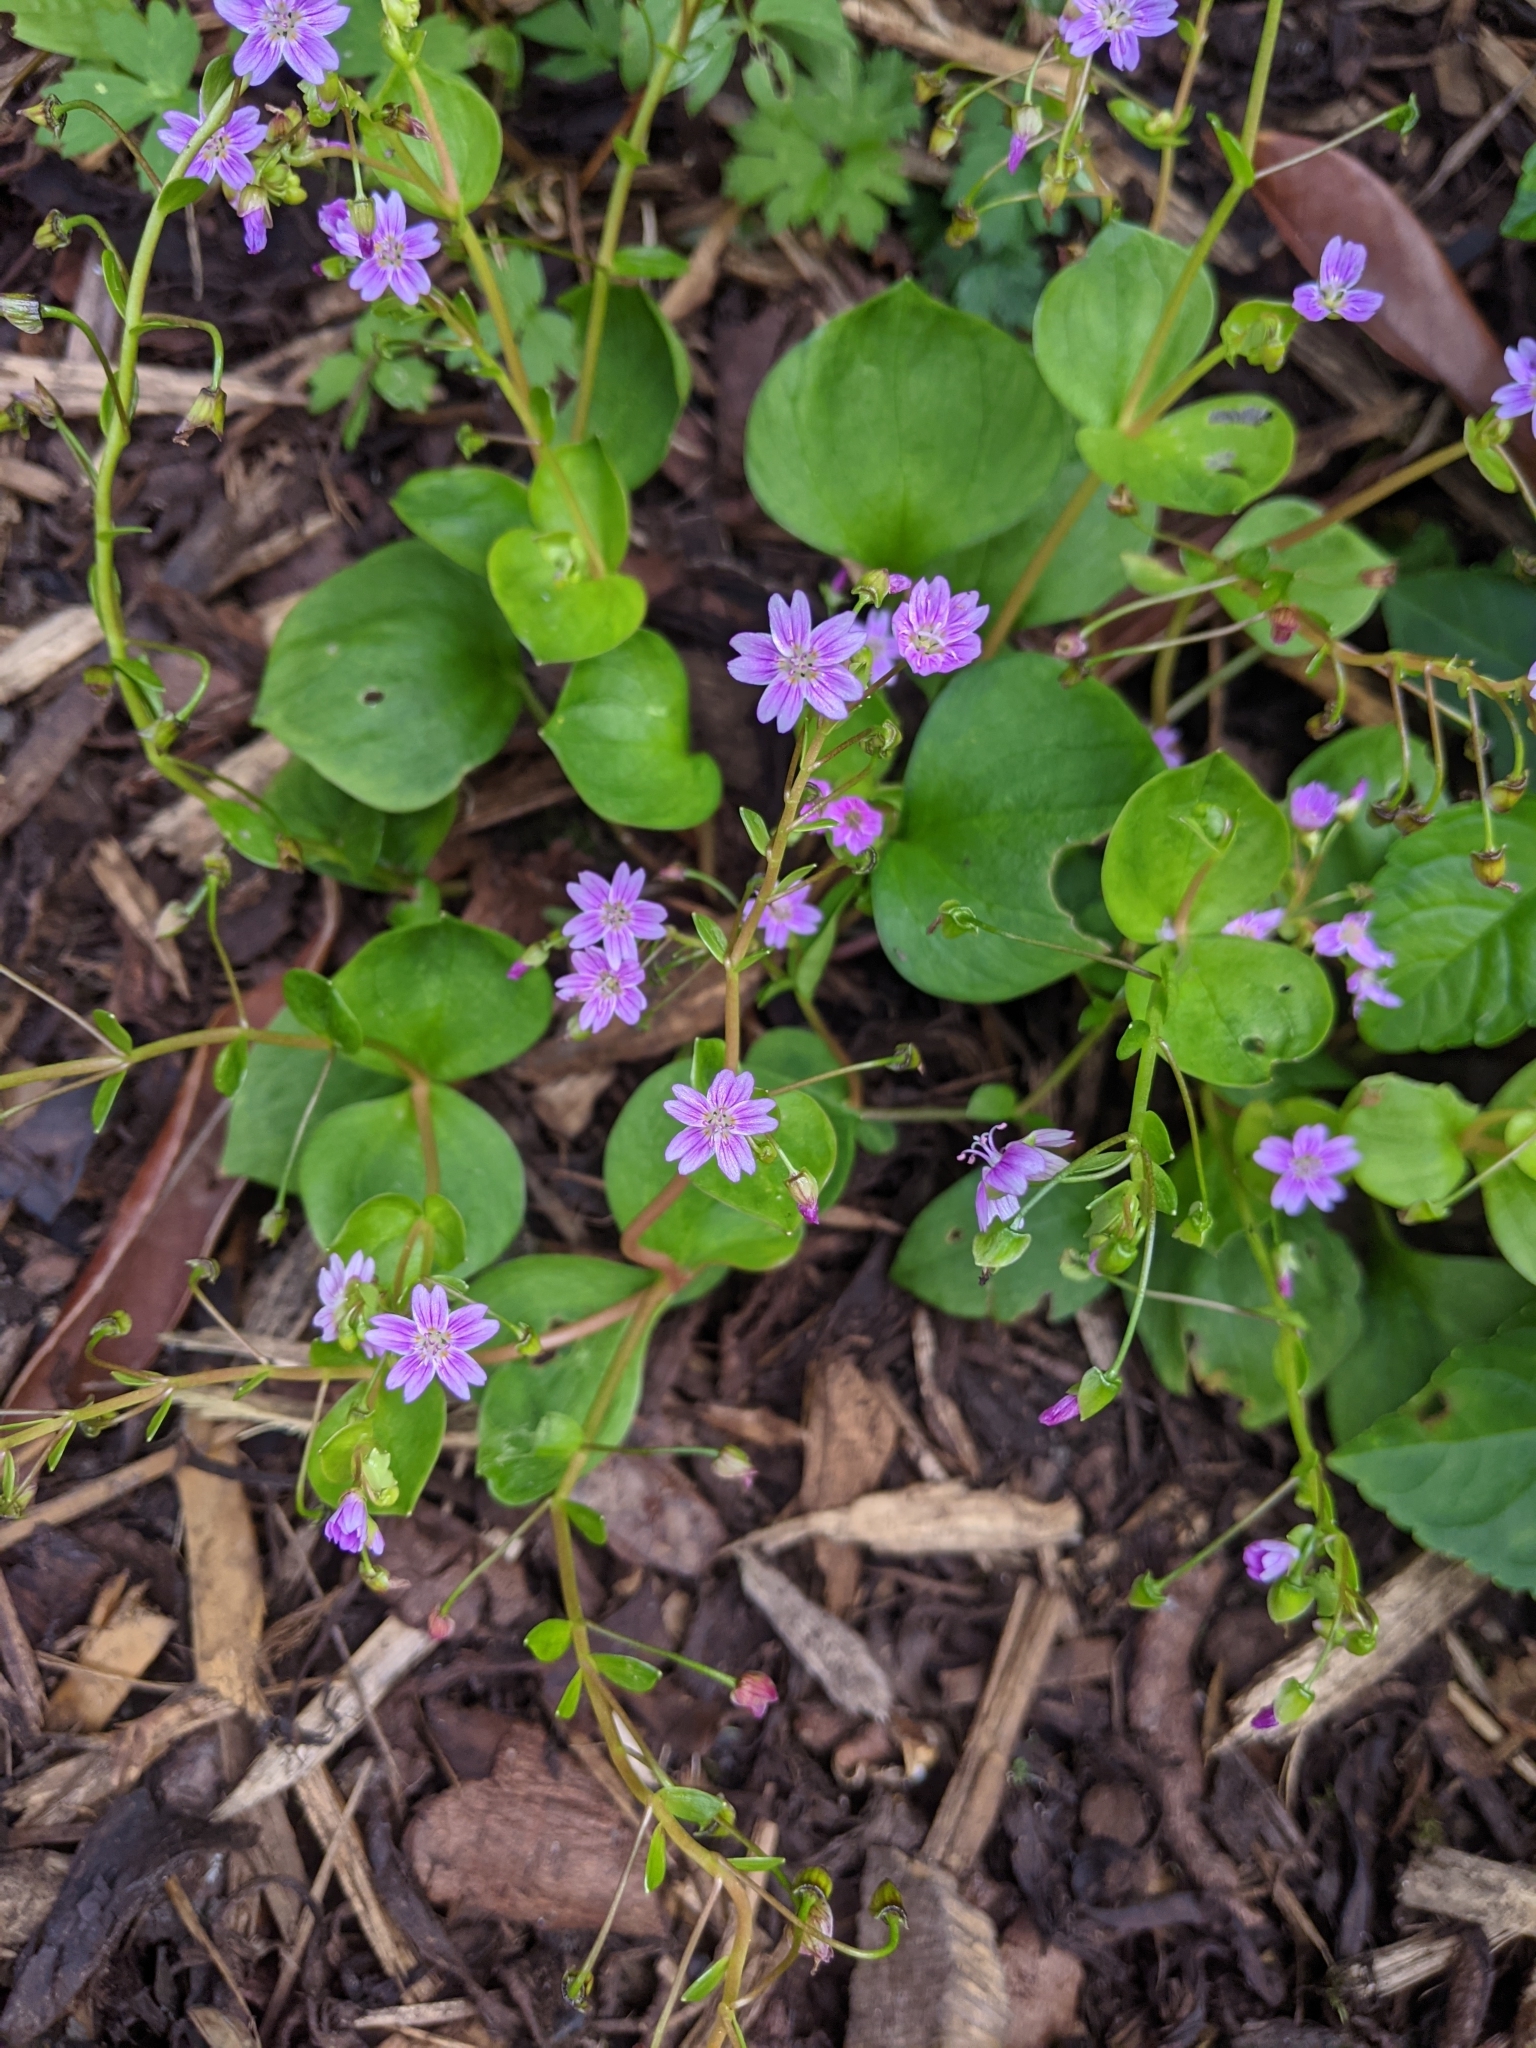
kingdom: Plantae
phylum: Tracheophyta
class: Magnoliopsida
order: Caryophyllales
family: Montiaceae
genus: Claytonia
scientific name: Claytonia sibirica
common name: Pink purslane
